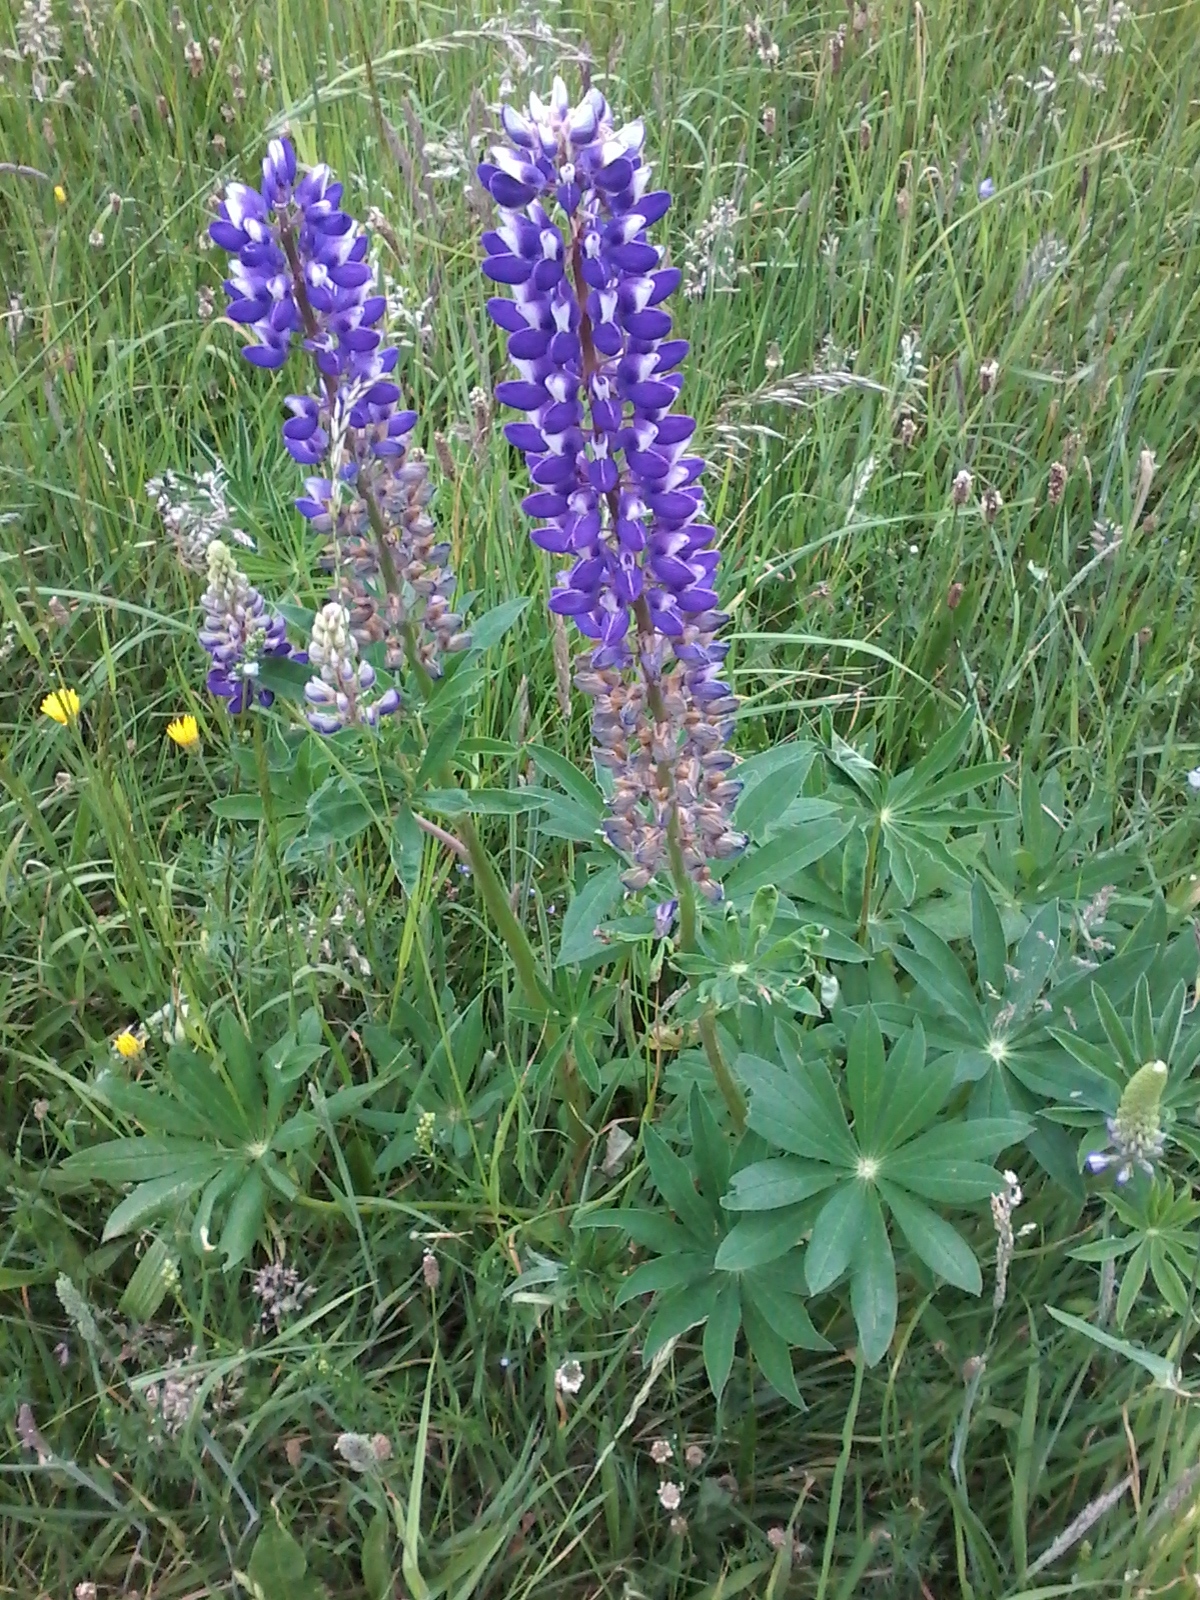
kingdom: Plantae
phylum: Tracheophyta
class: Magnoliopsida
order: Fabales
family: Fabaceae
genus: Lupinus
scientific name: Lupinus polyphyllus
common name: Garden lupin
